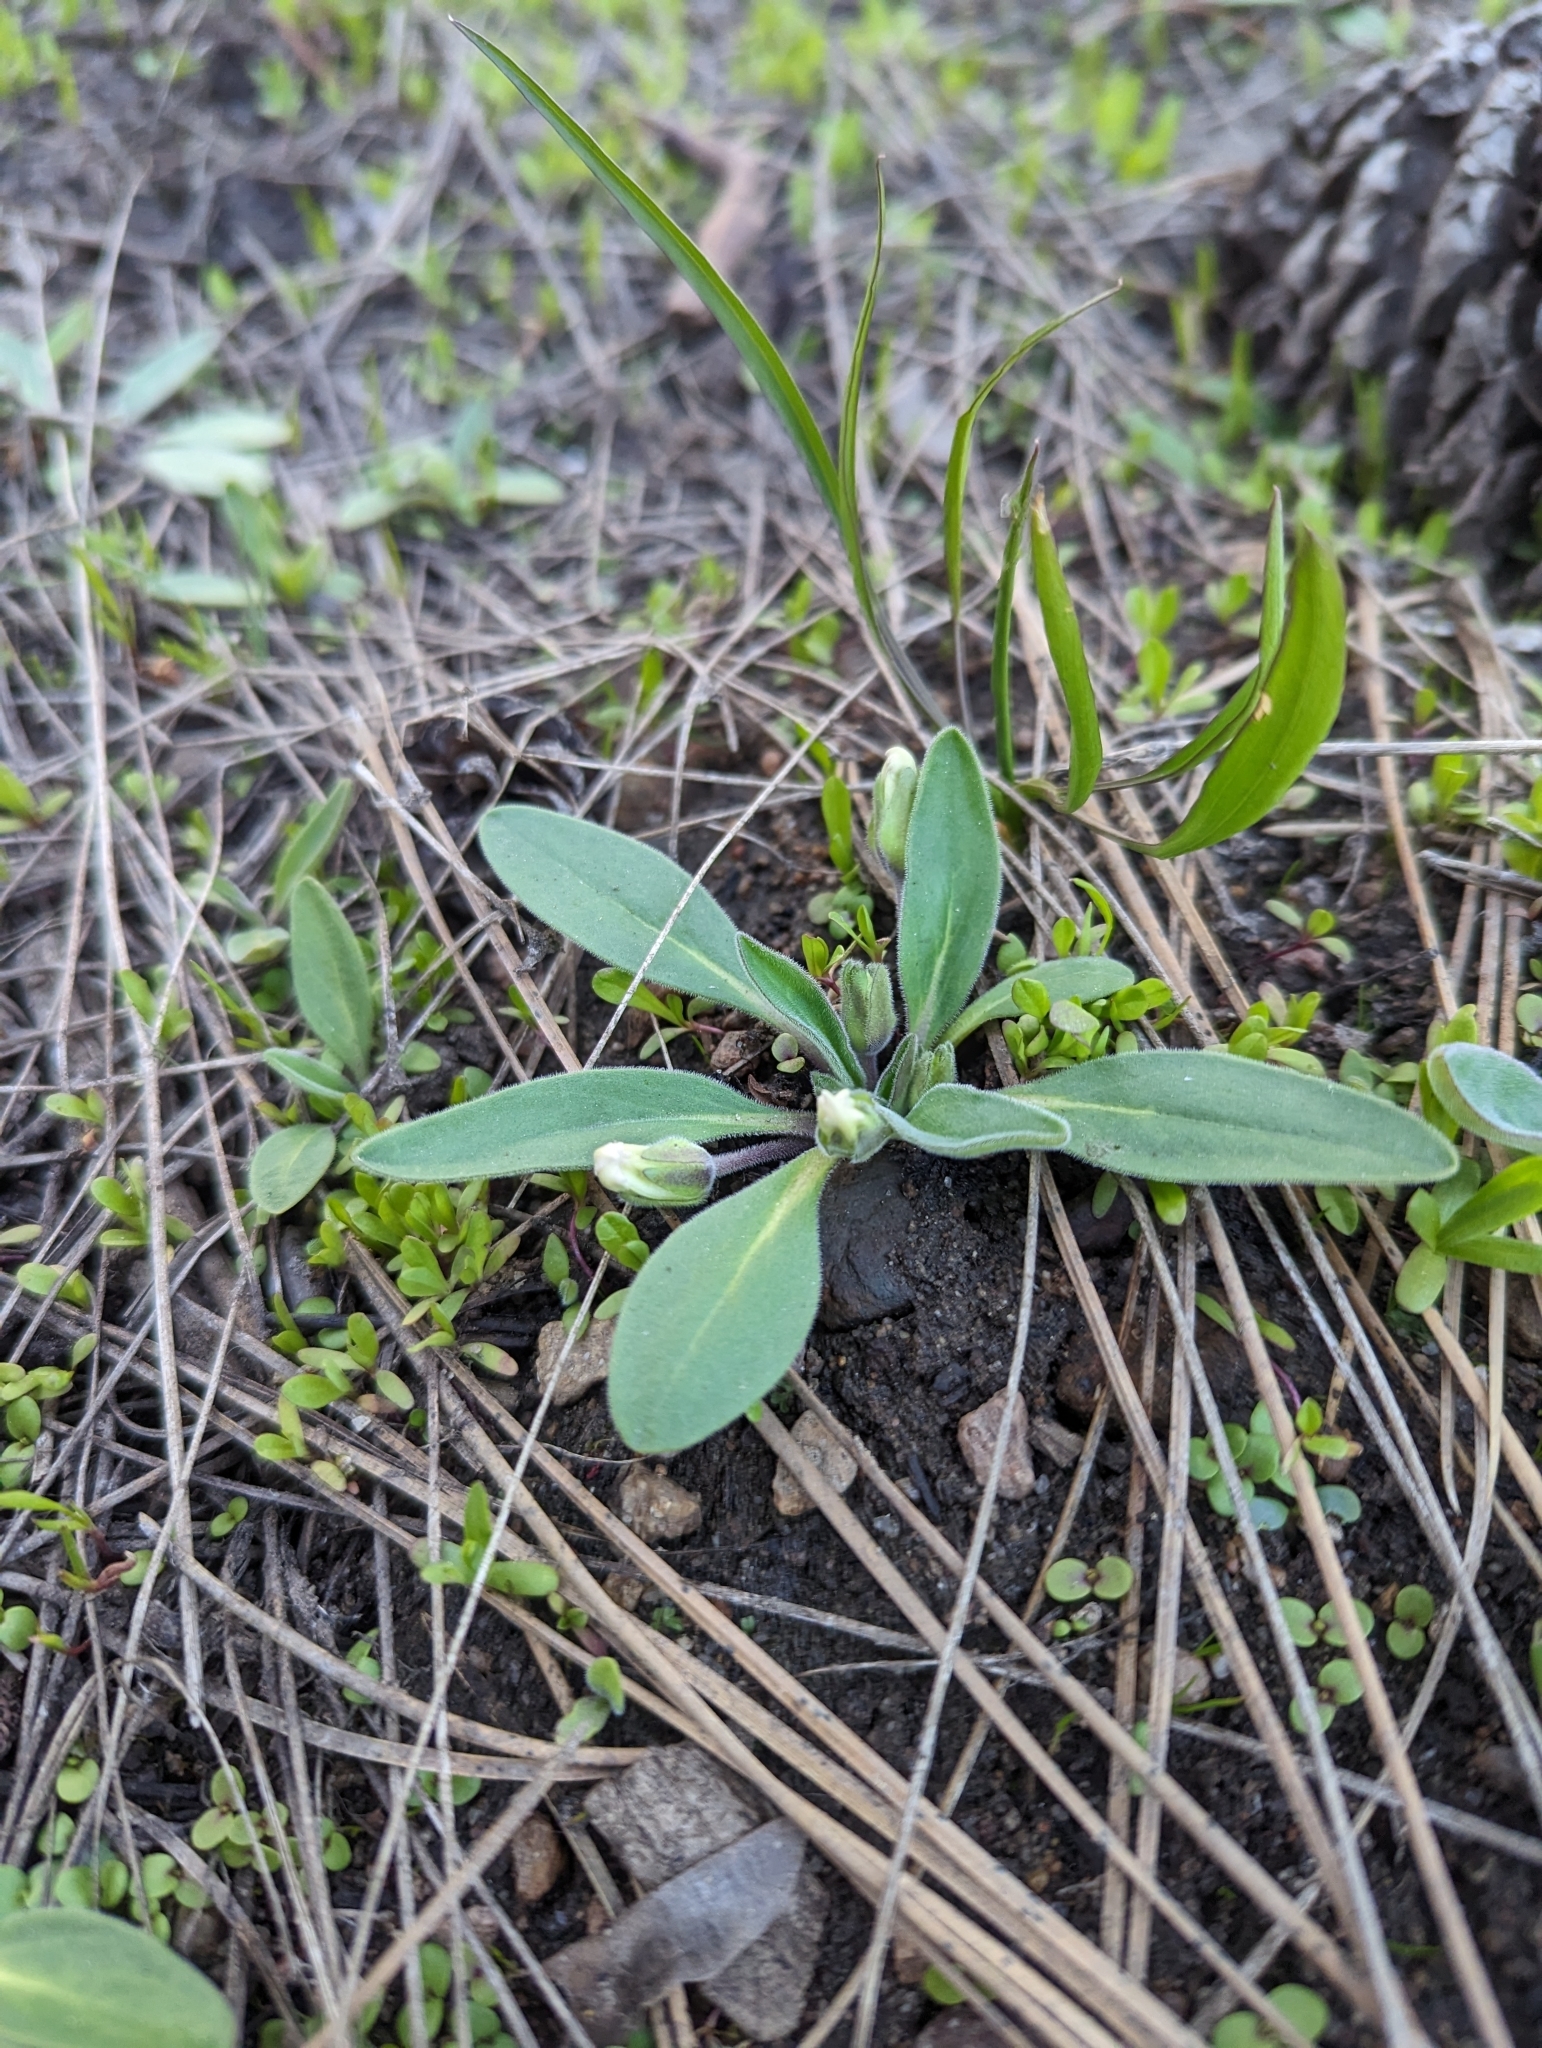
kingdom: Plantae
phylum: Tracheophyta
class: Magnoliopsida
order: Boraginales
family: Hydrophyllaceae
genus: Hesperochiron
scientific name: Hesperochiron californicus
